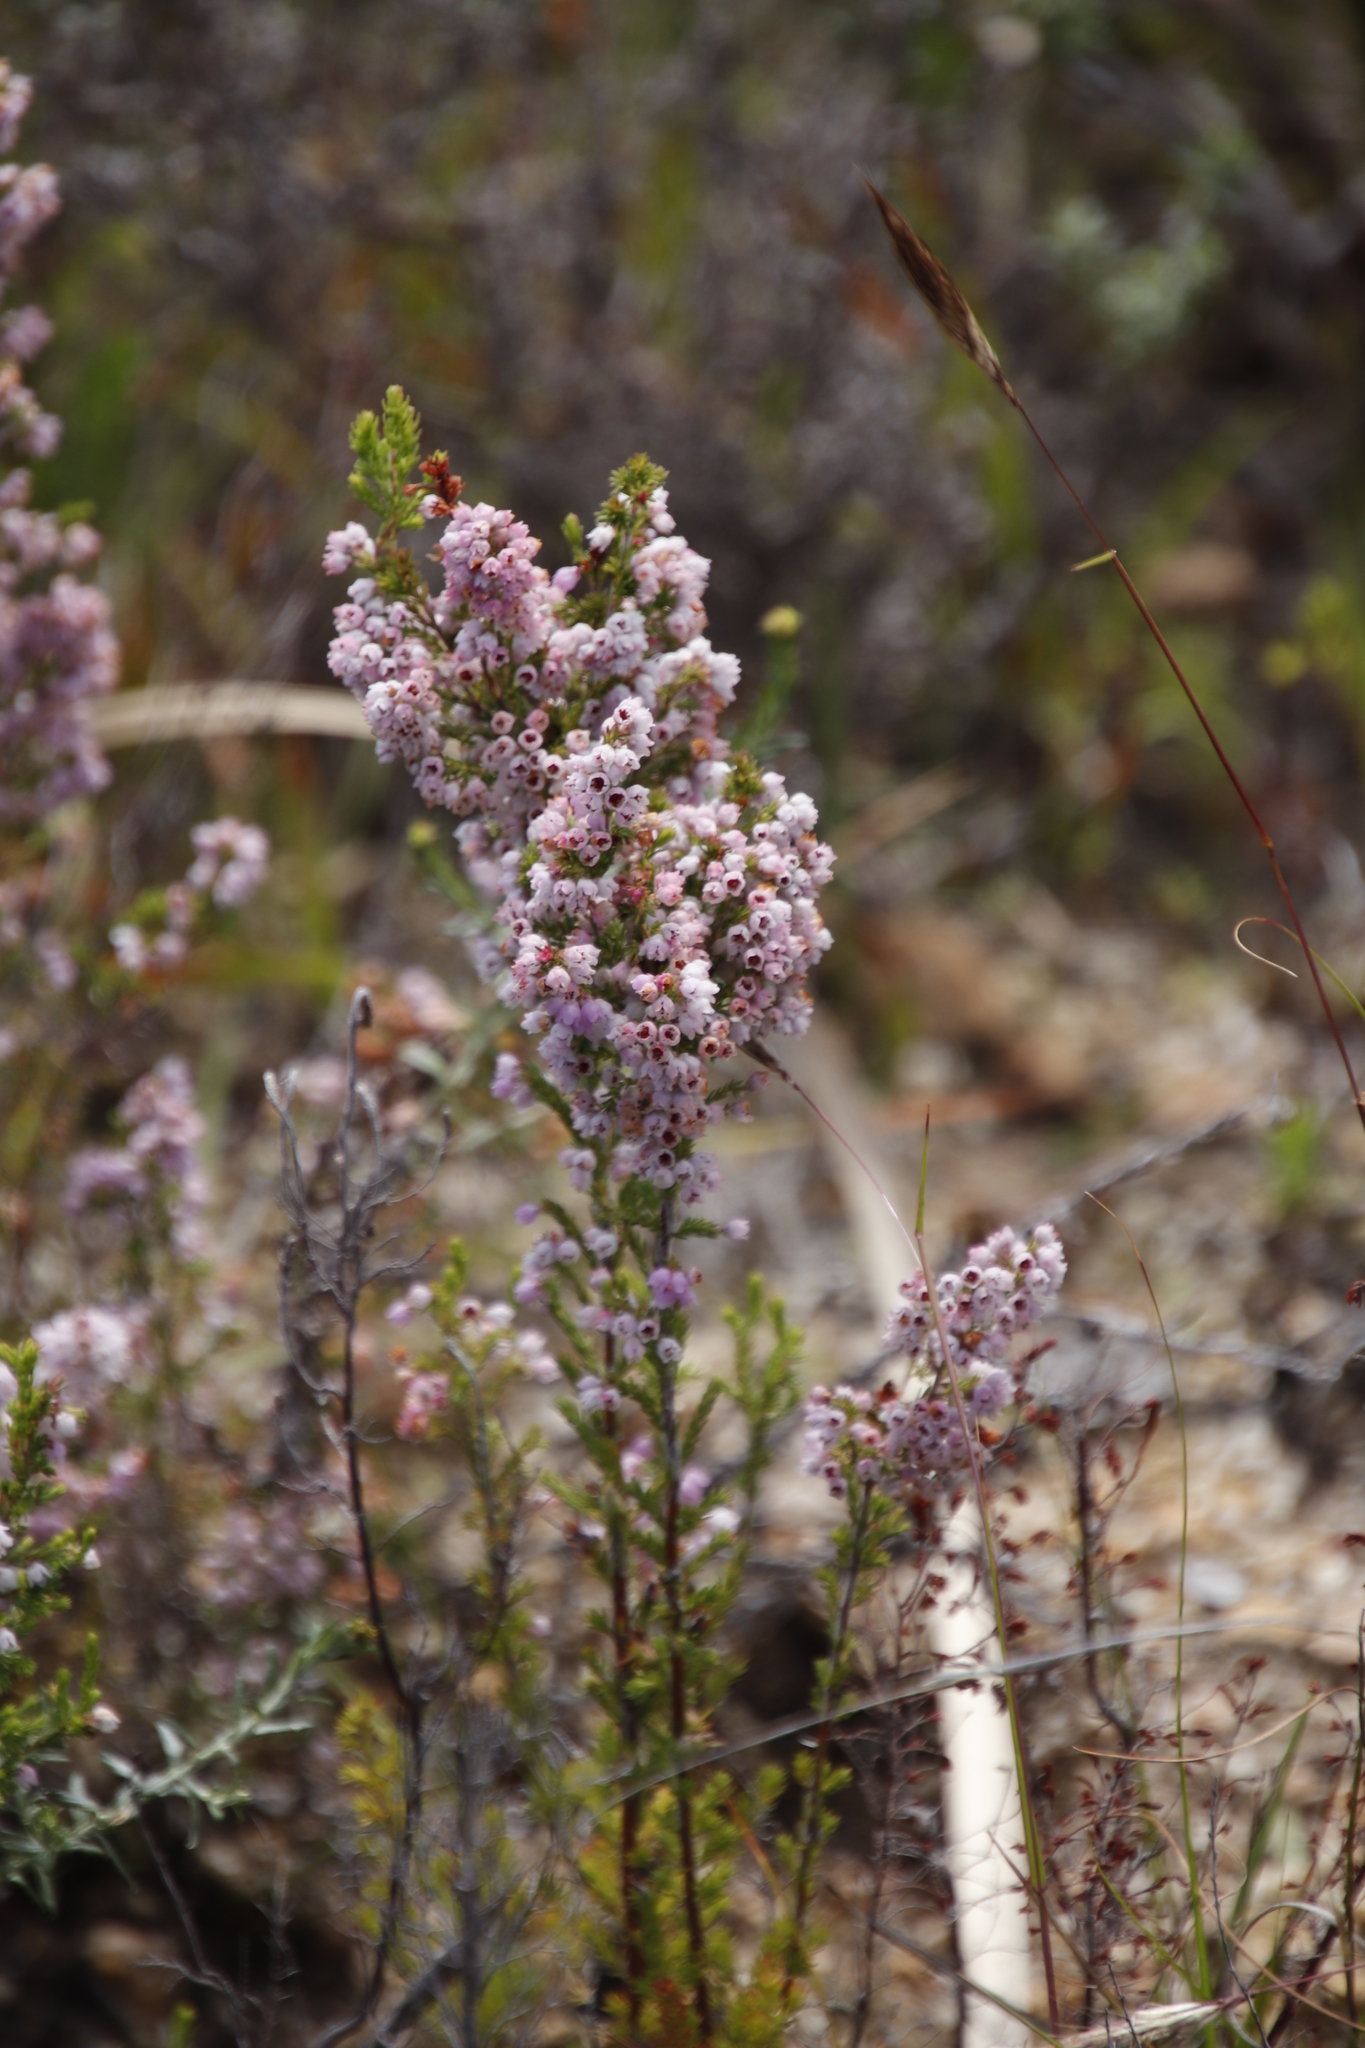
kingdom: Plantae
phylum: Tracheophyta
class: Magnoliopsida
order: Ericales
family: Ericaceae
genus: Erica
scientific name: Erica mauritanica
